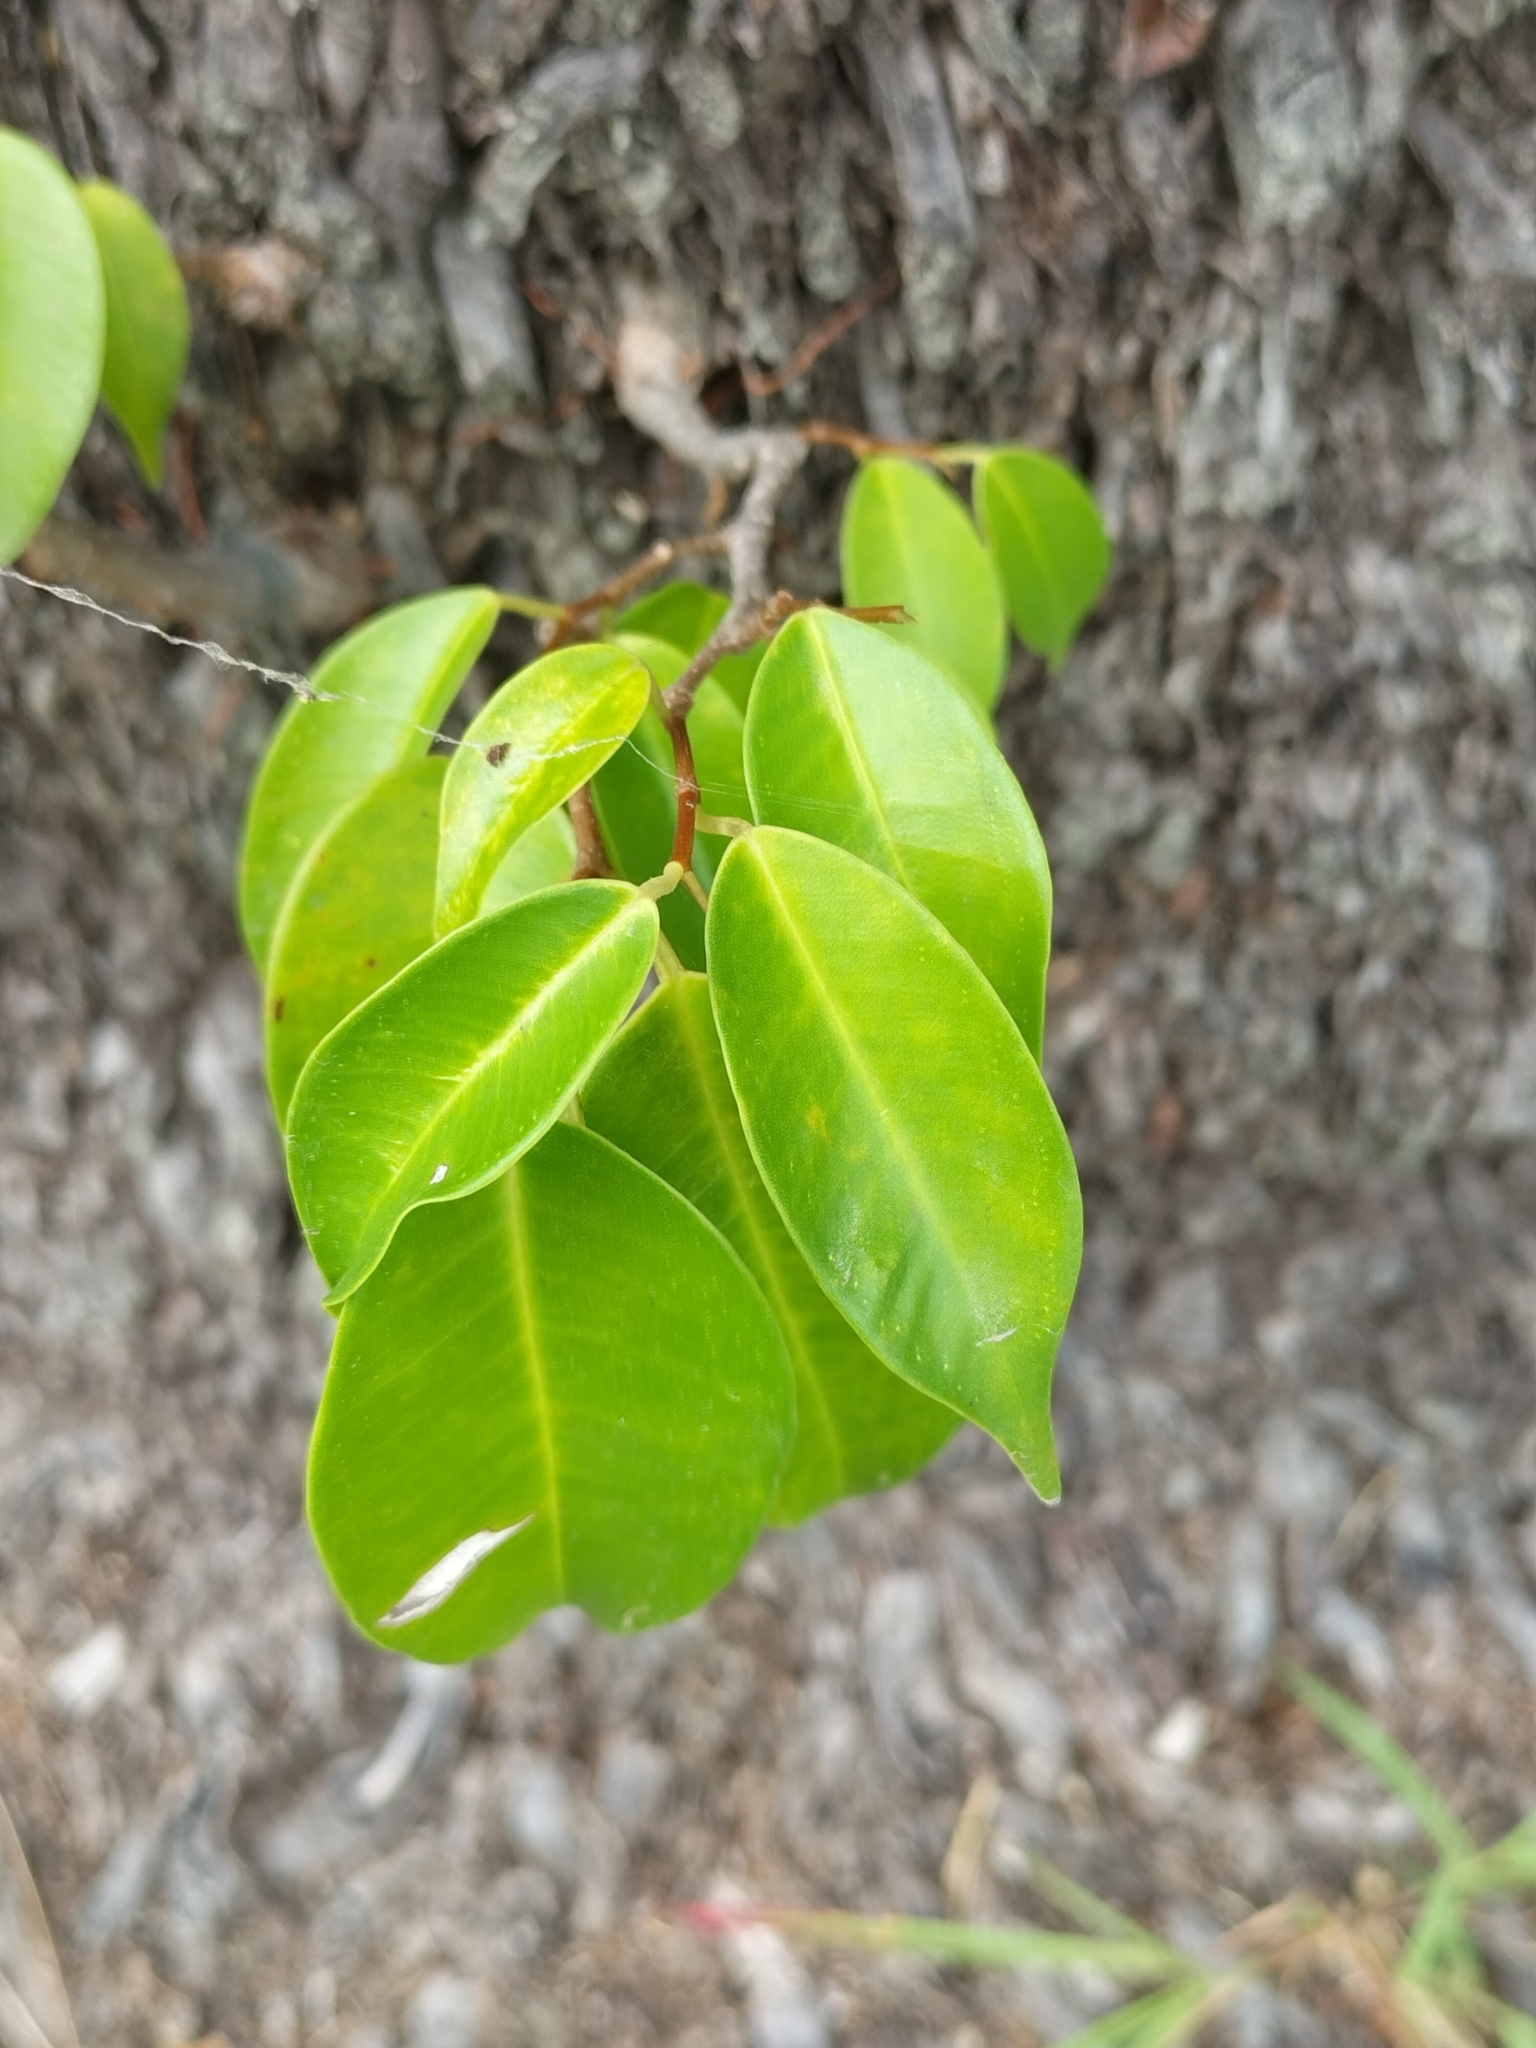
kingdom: Plantae
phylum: Tracheophyta
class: Magnoliopsida
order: Rosales
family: Moraceae
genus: Ficus
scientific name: Ficus benjamina
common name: Weeping fig
